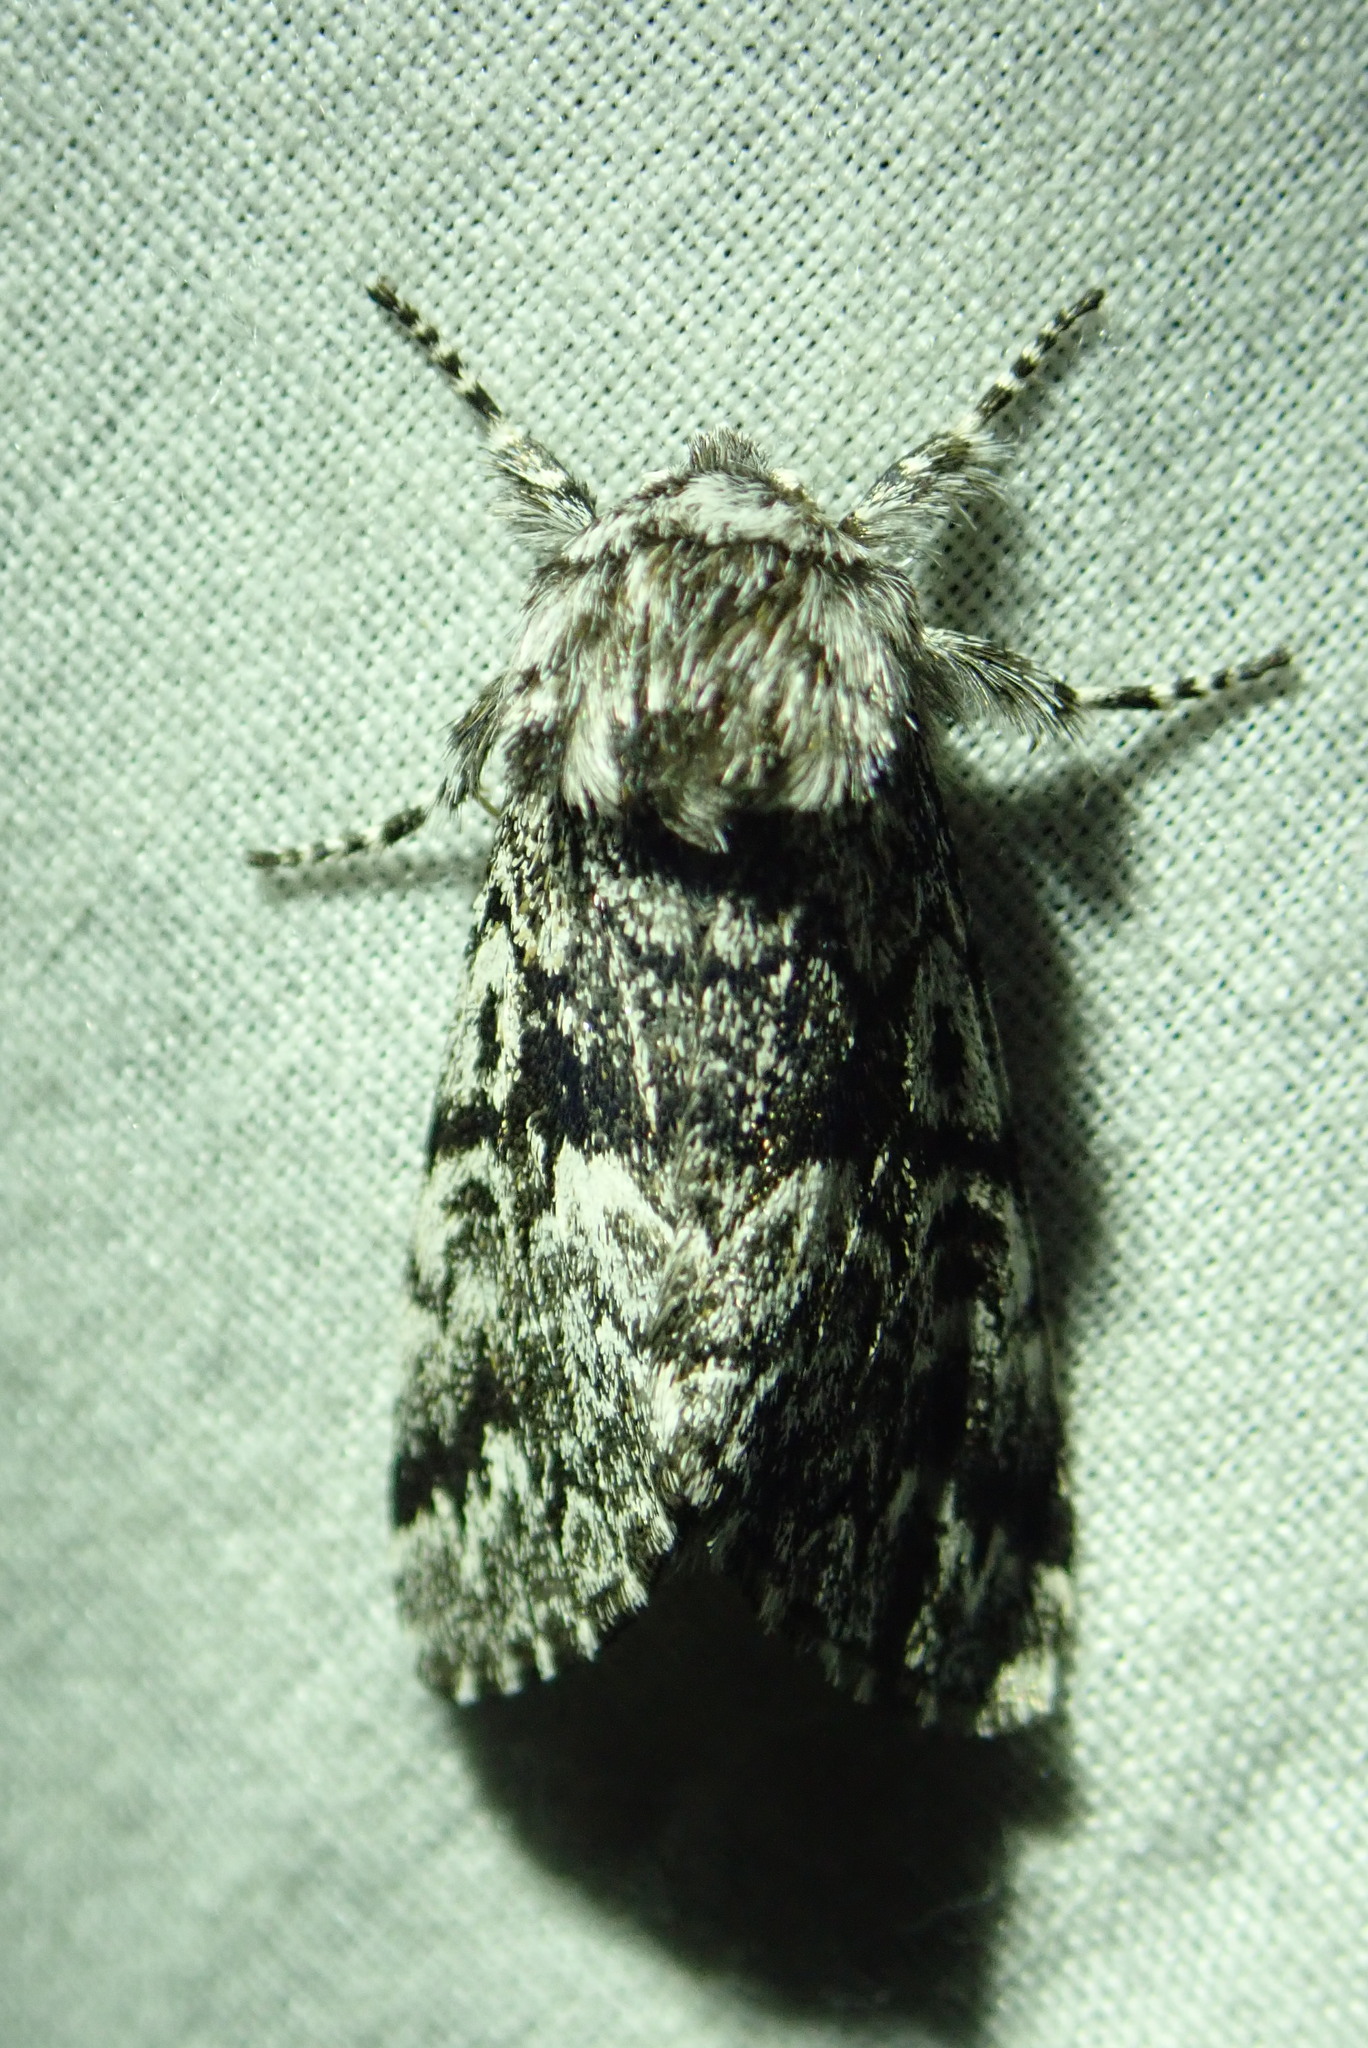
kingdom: Animalia
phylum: Arthropoda
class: Insecta
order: Lepidoptera
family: Noctuidae
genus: Panthea
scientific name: Panthea acronyctoides
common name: Black zigzag moth
